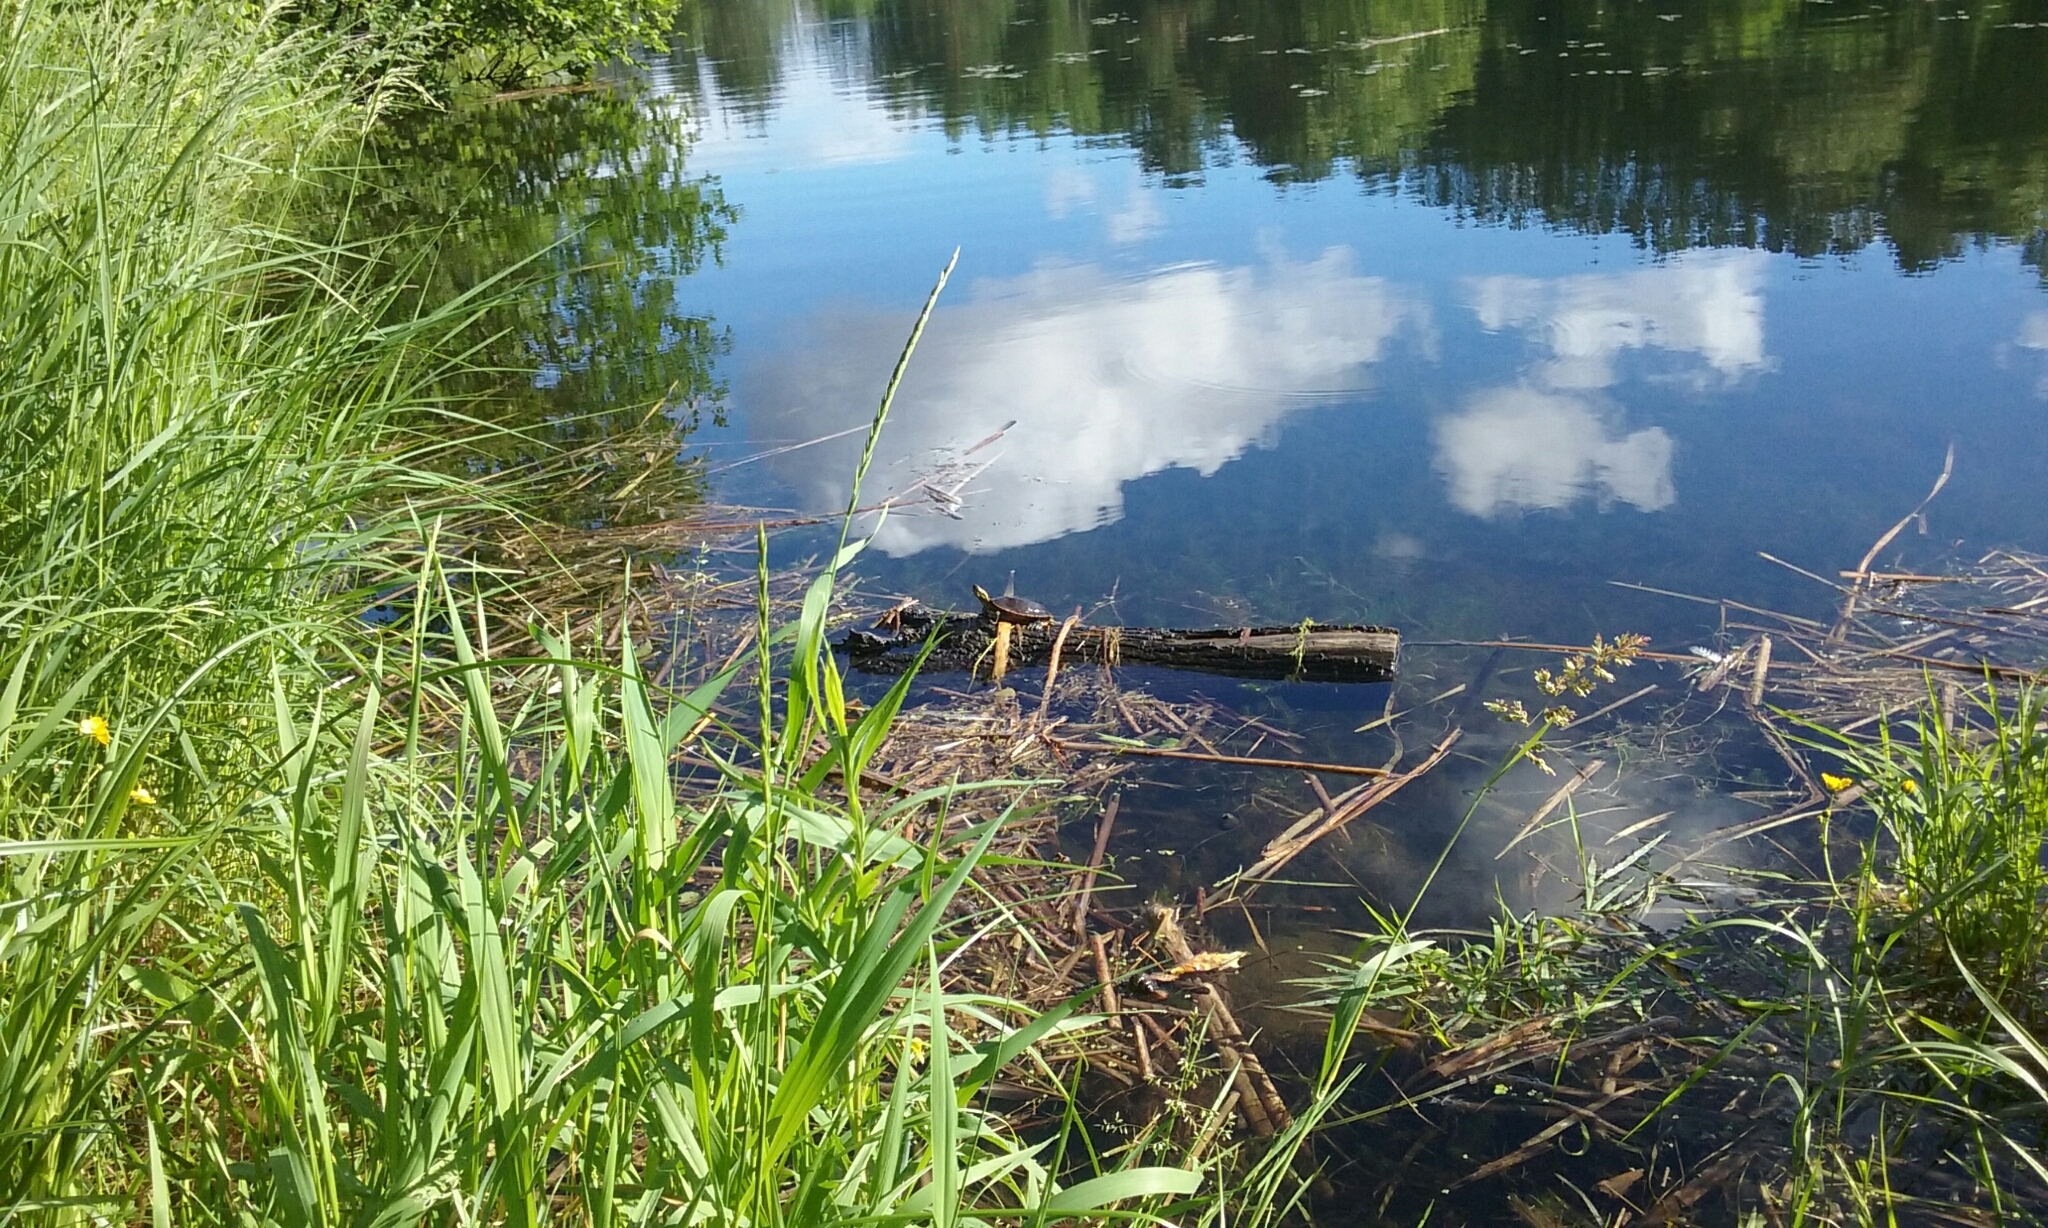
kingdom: Animalia
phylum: Chordata
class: Testudines
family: Emydidae
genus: Chrysemys
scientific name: Chrysemys picta
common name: Painted turtle
